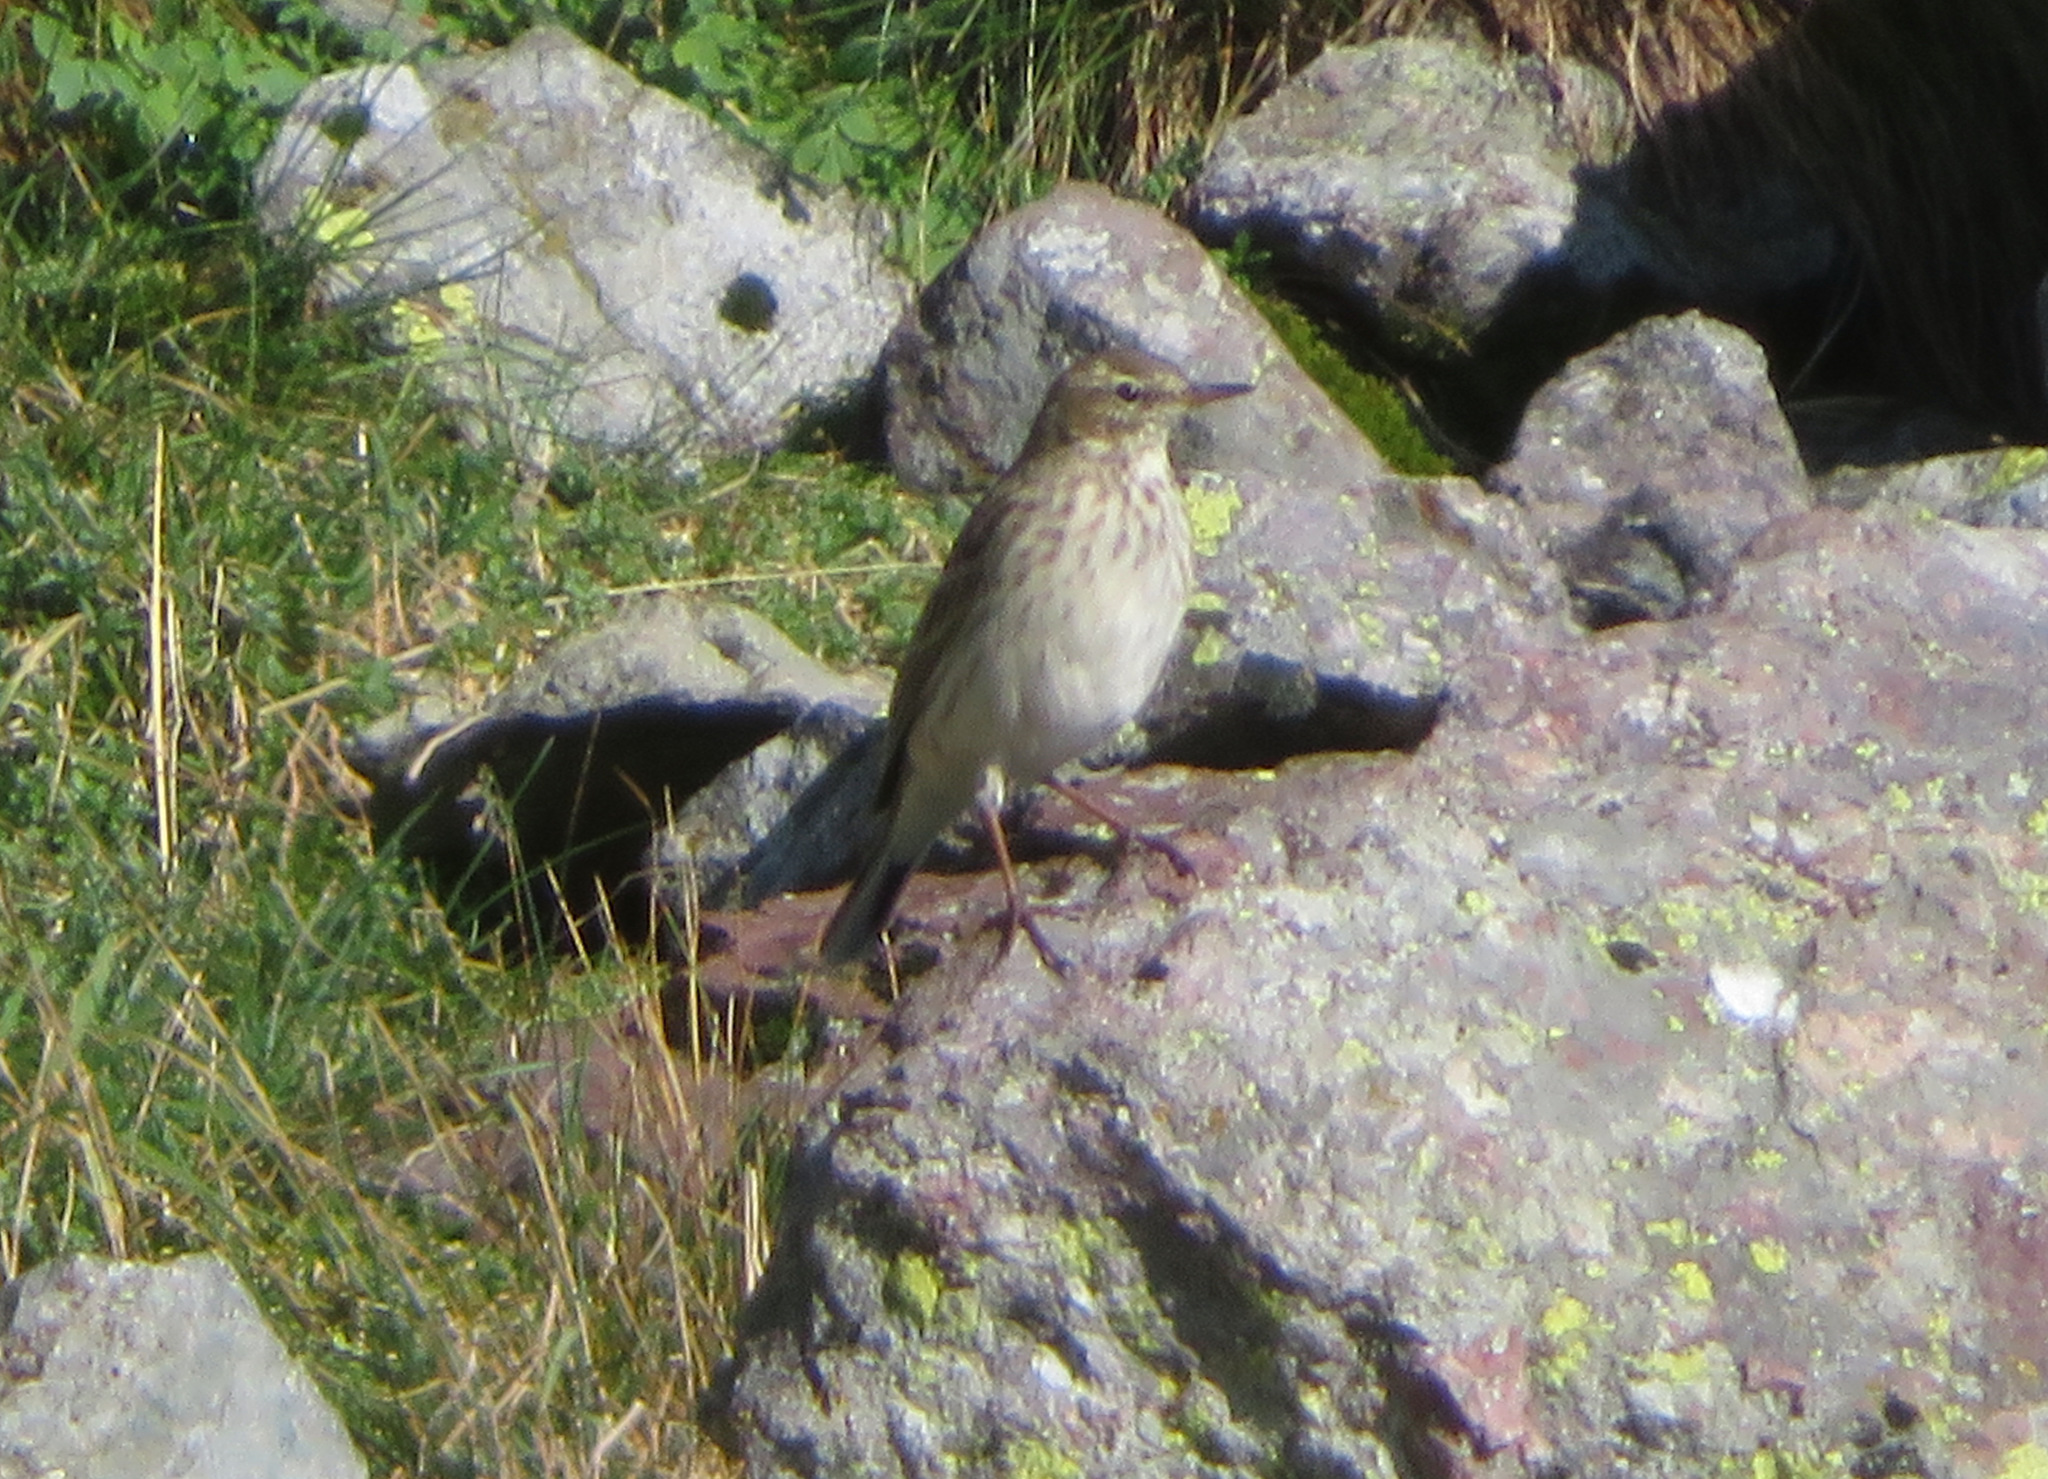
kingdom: Animalia
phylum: Chordata
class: Aves
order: Passeriformes
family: Motacillidae
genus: Anthus
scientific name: Anthus spinoletta
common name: Water pipit
